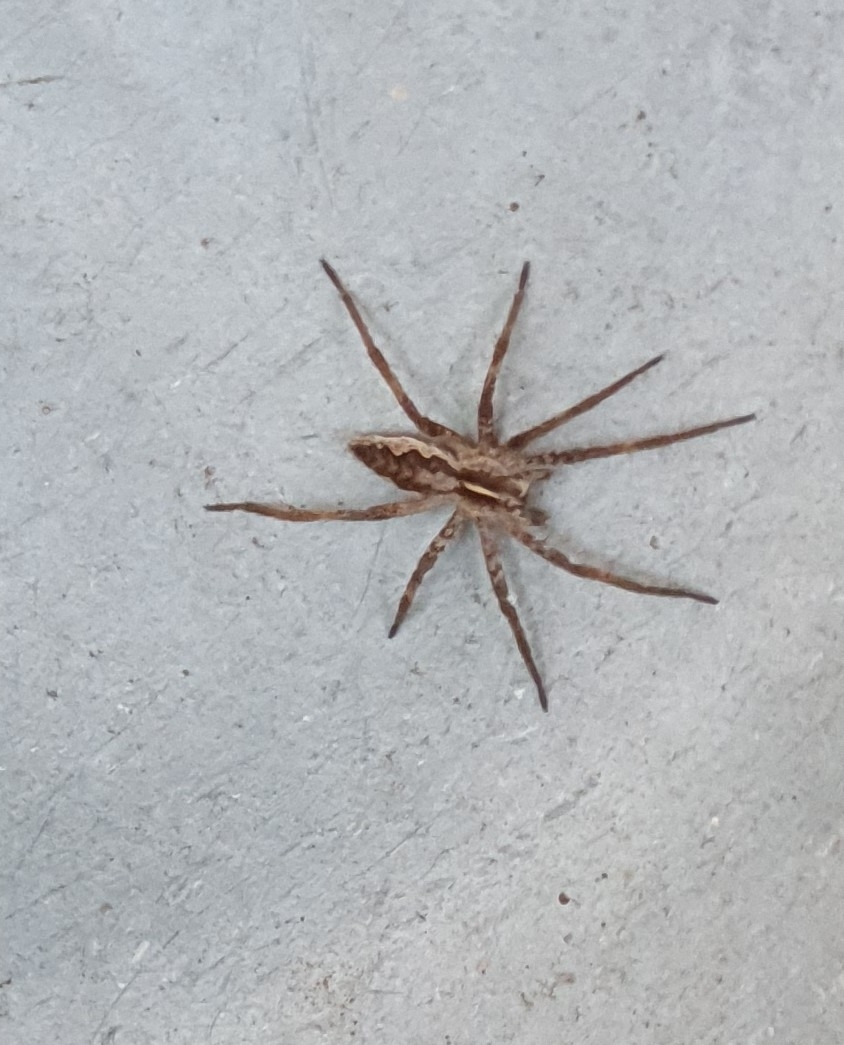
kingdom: Animalia
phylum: Arthropoda
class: Arachnida
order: Araneae
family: Pisauridae
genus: Pisaura
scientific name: Pisaura mirabilis
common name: Tent spider
